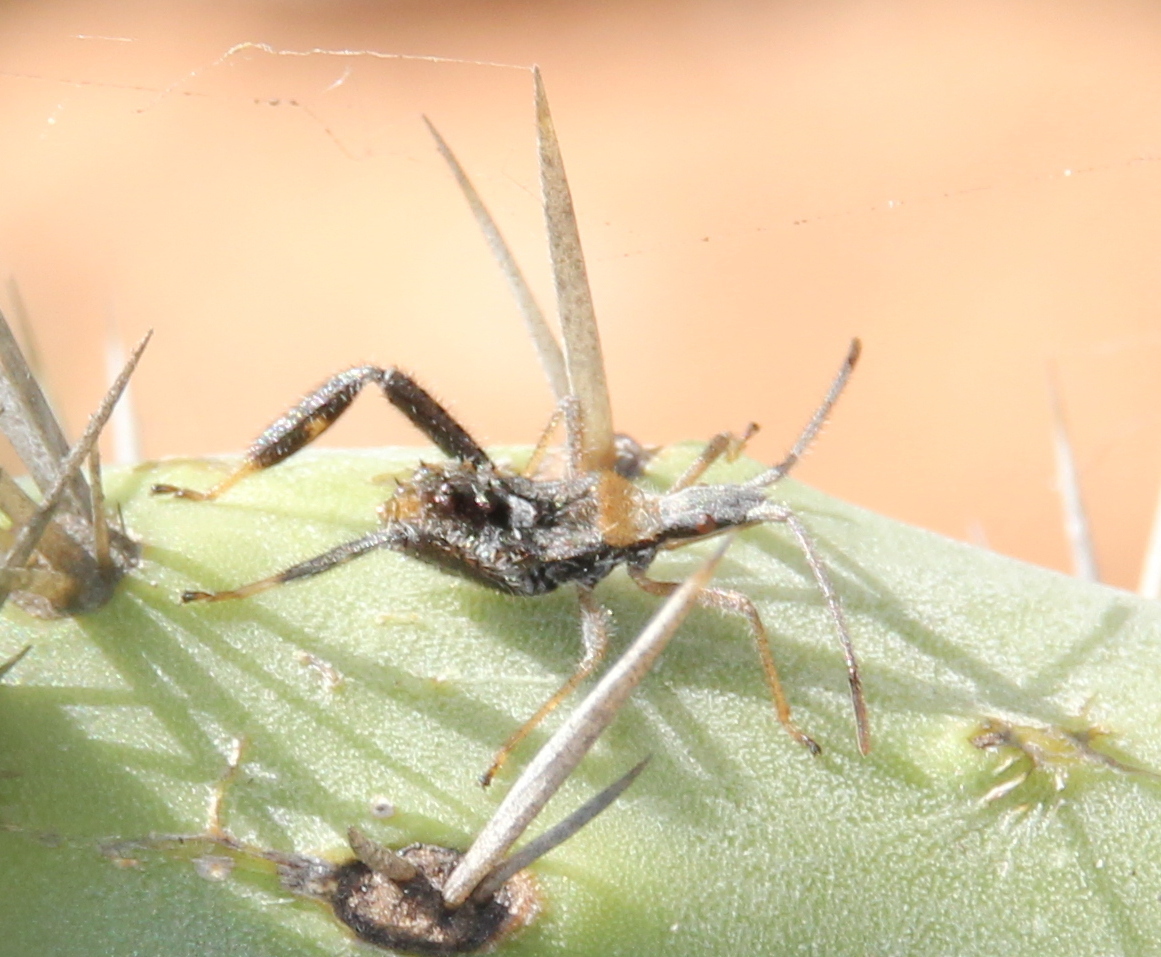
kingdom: Animalia
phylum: Arthropoda
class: Insecta
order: Hemiptera
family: Coreidae
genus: Narnia
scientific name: Narnia femorata
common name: Leaf-footed cactus bug
